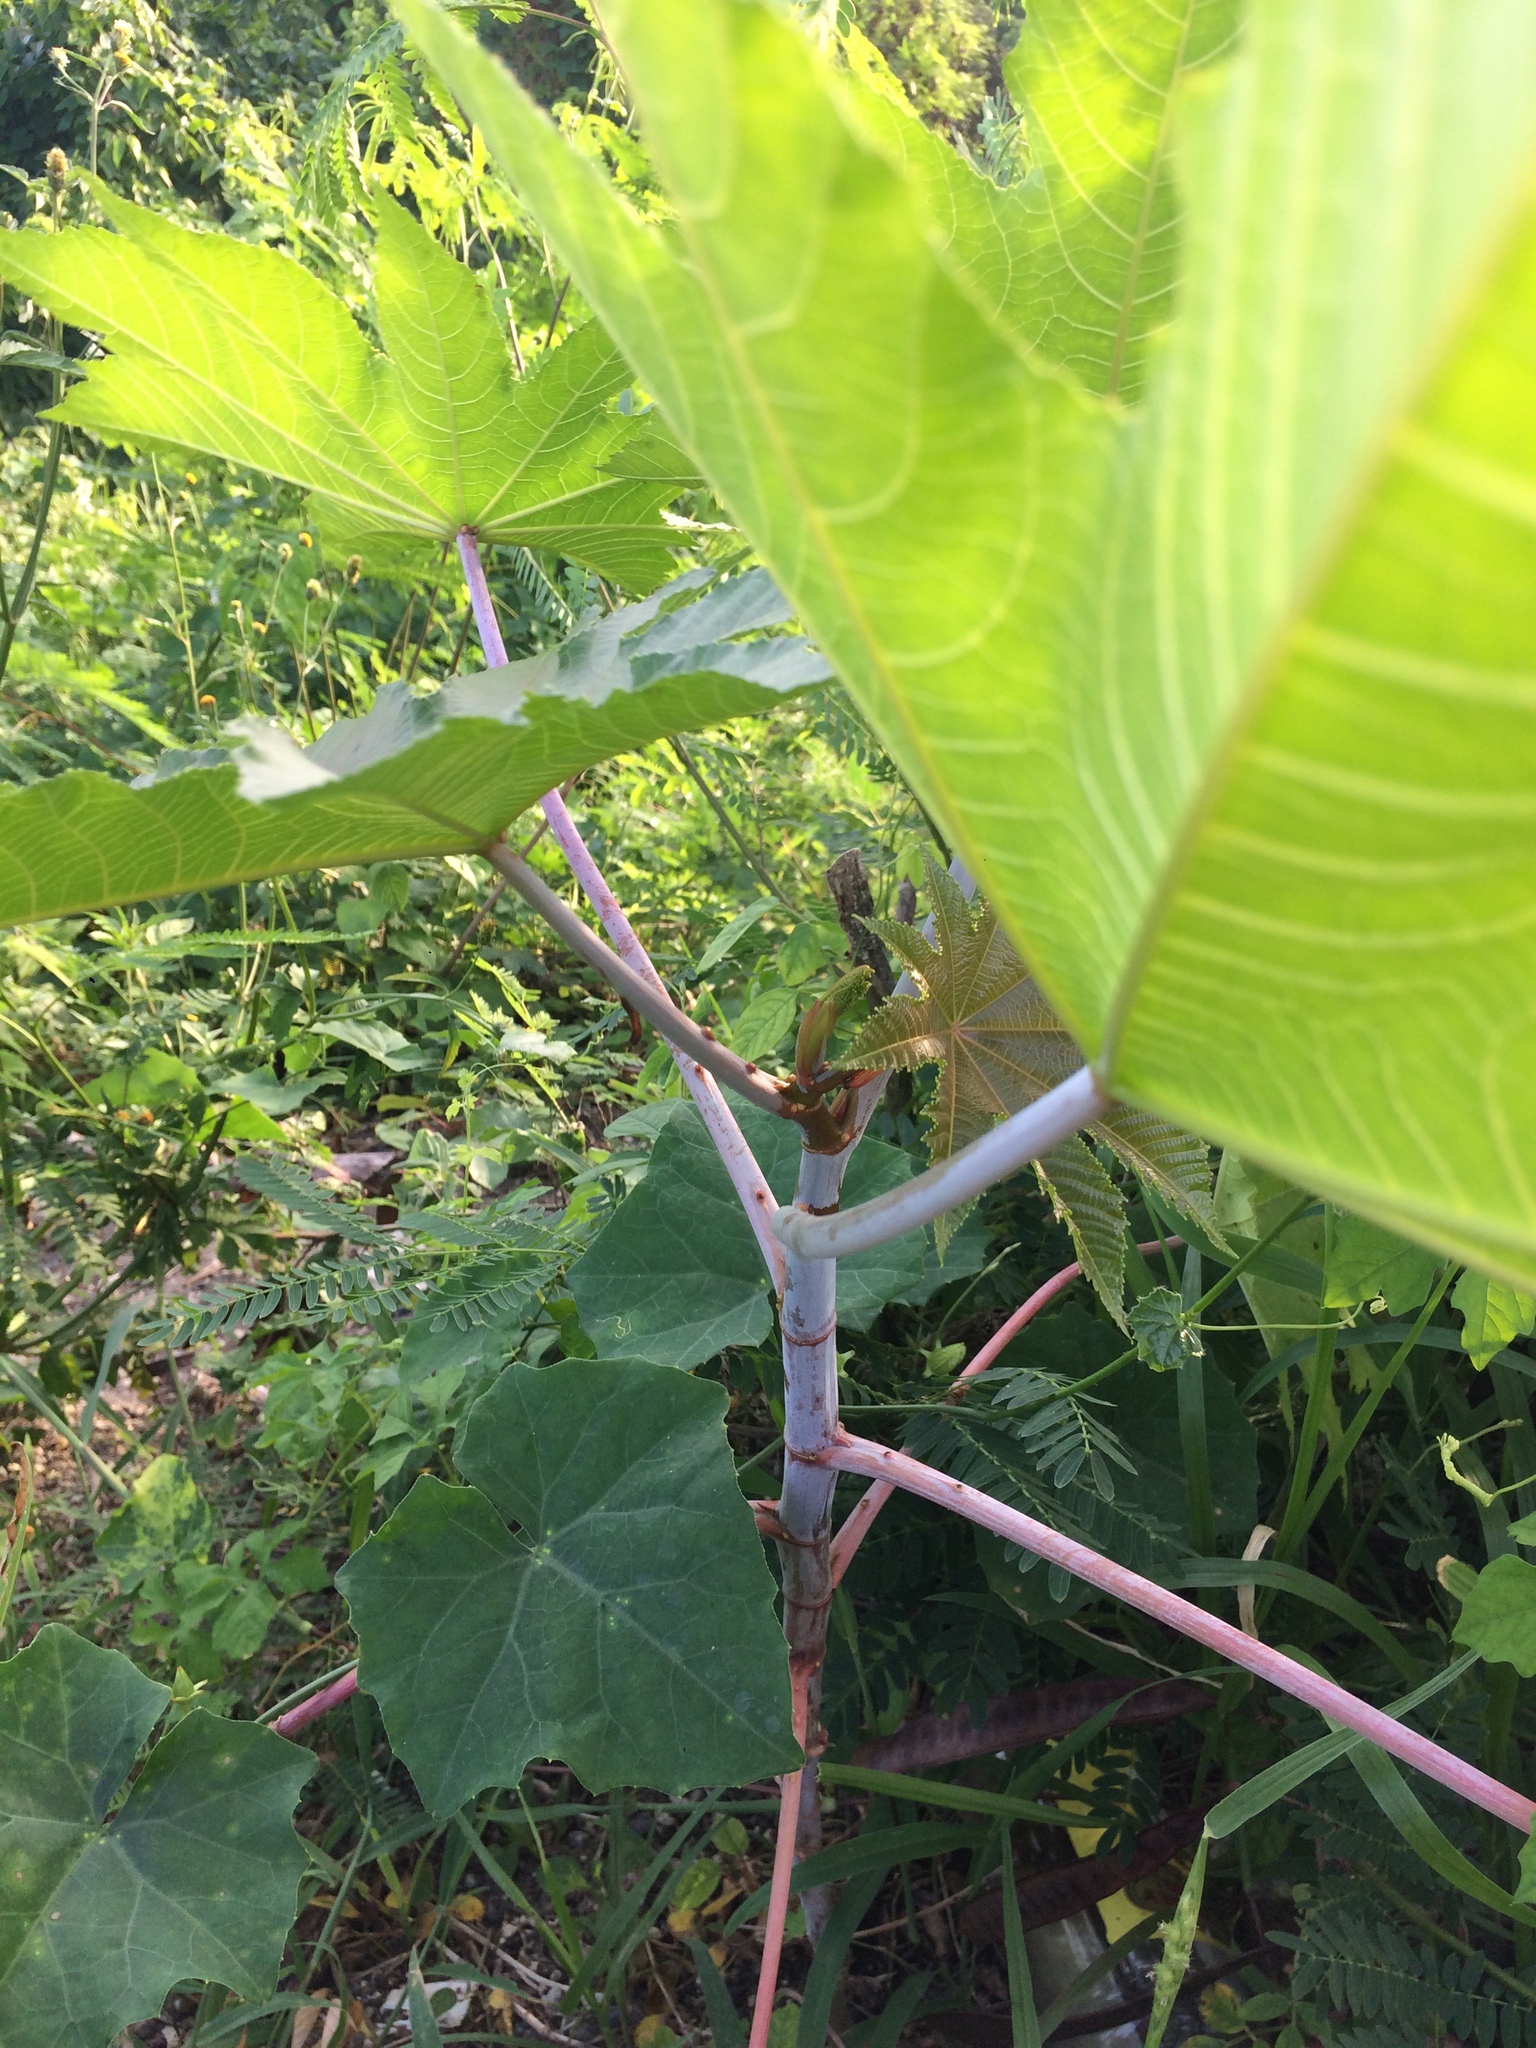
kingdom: Plantae
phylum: Tracheophyta
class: Magnoliopsida
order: Malpighiales
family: Euphorbiaceae
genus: Ricinus
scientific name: Ricinus communis
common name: Castor-oil-plant
